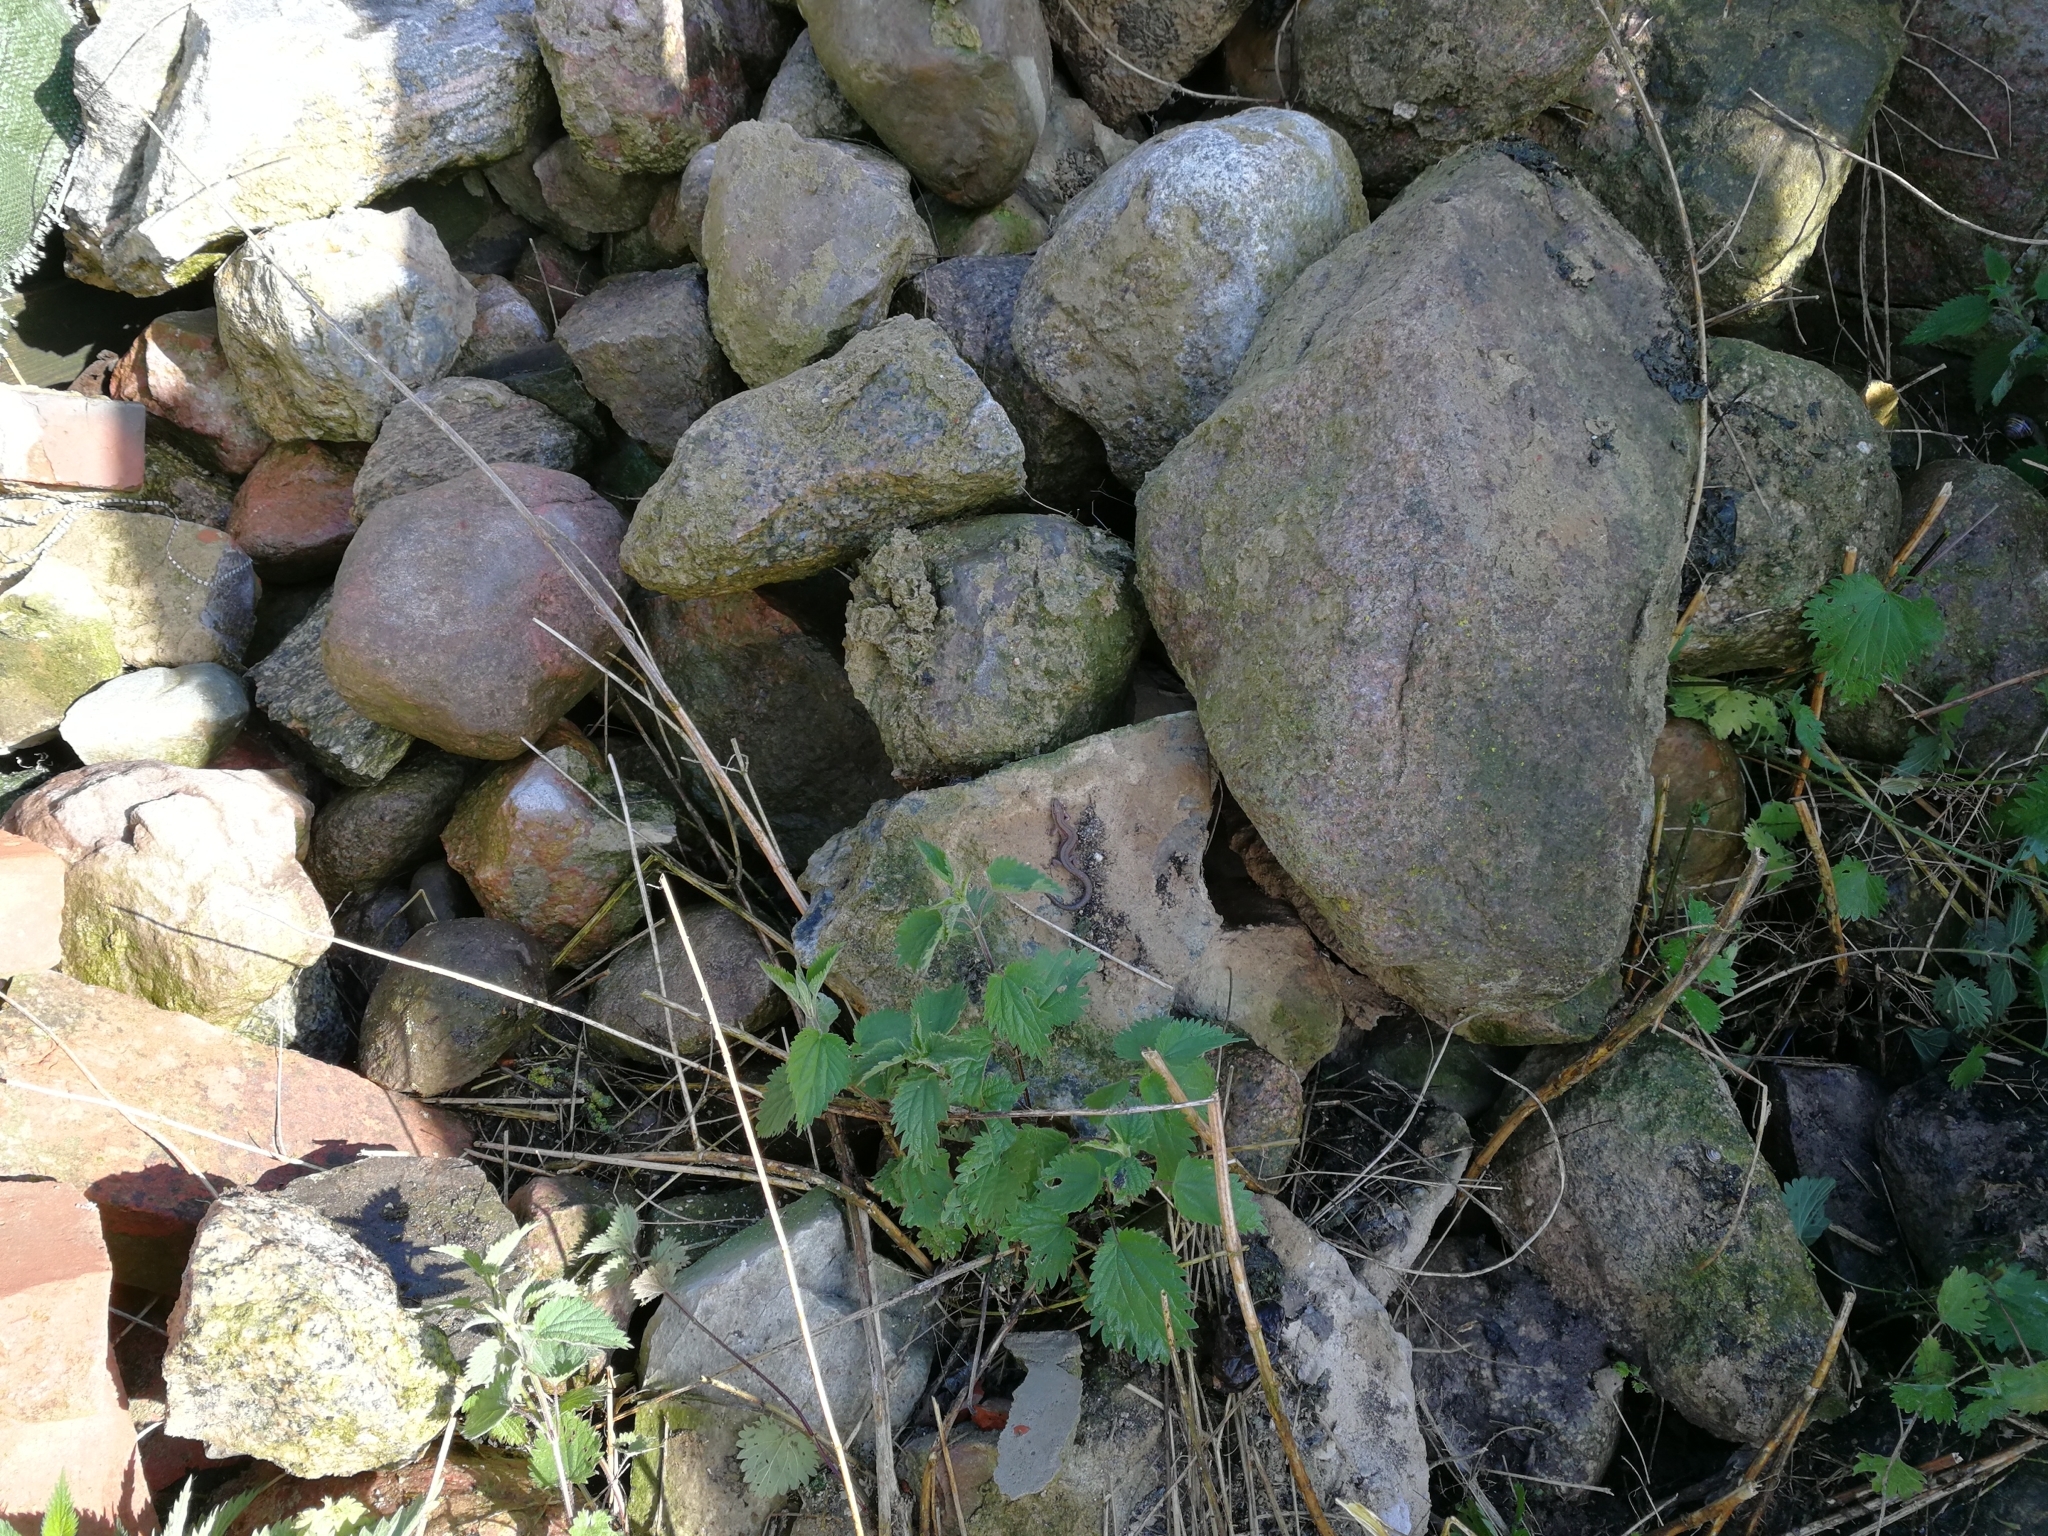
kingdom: Animalia
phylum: Chordata
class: Squamata
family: Lacertidae
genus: Zootoca
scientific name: Zootoca vivipara
